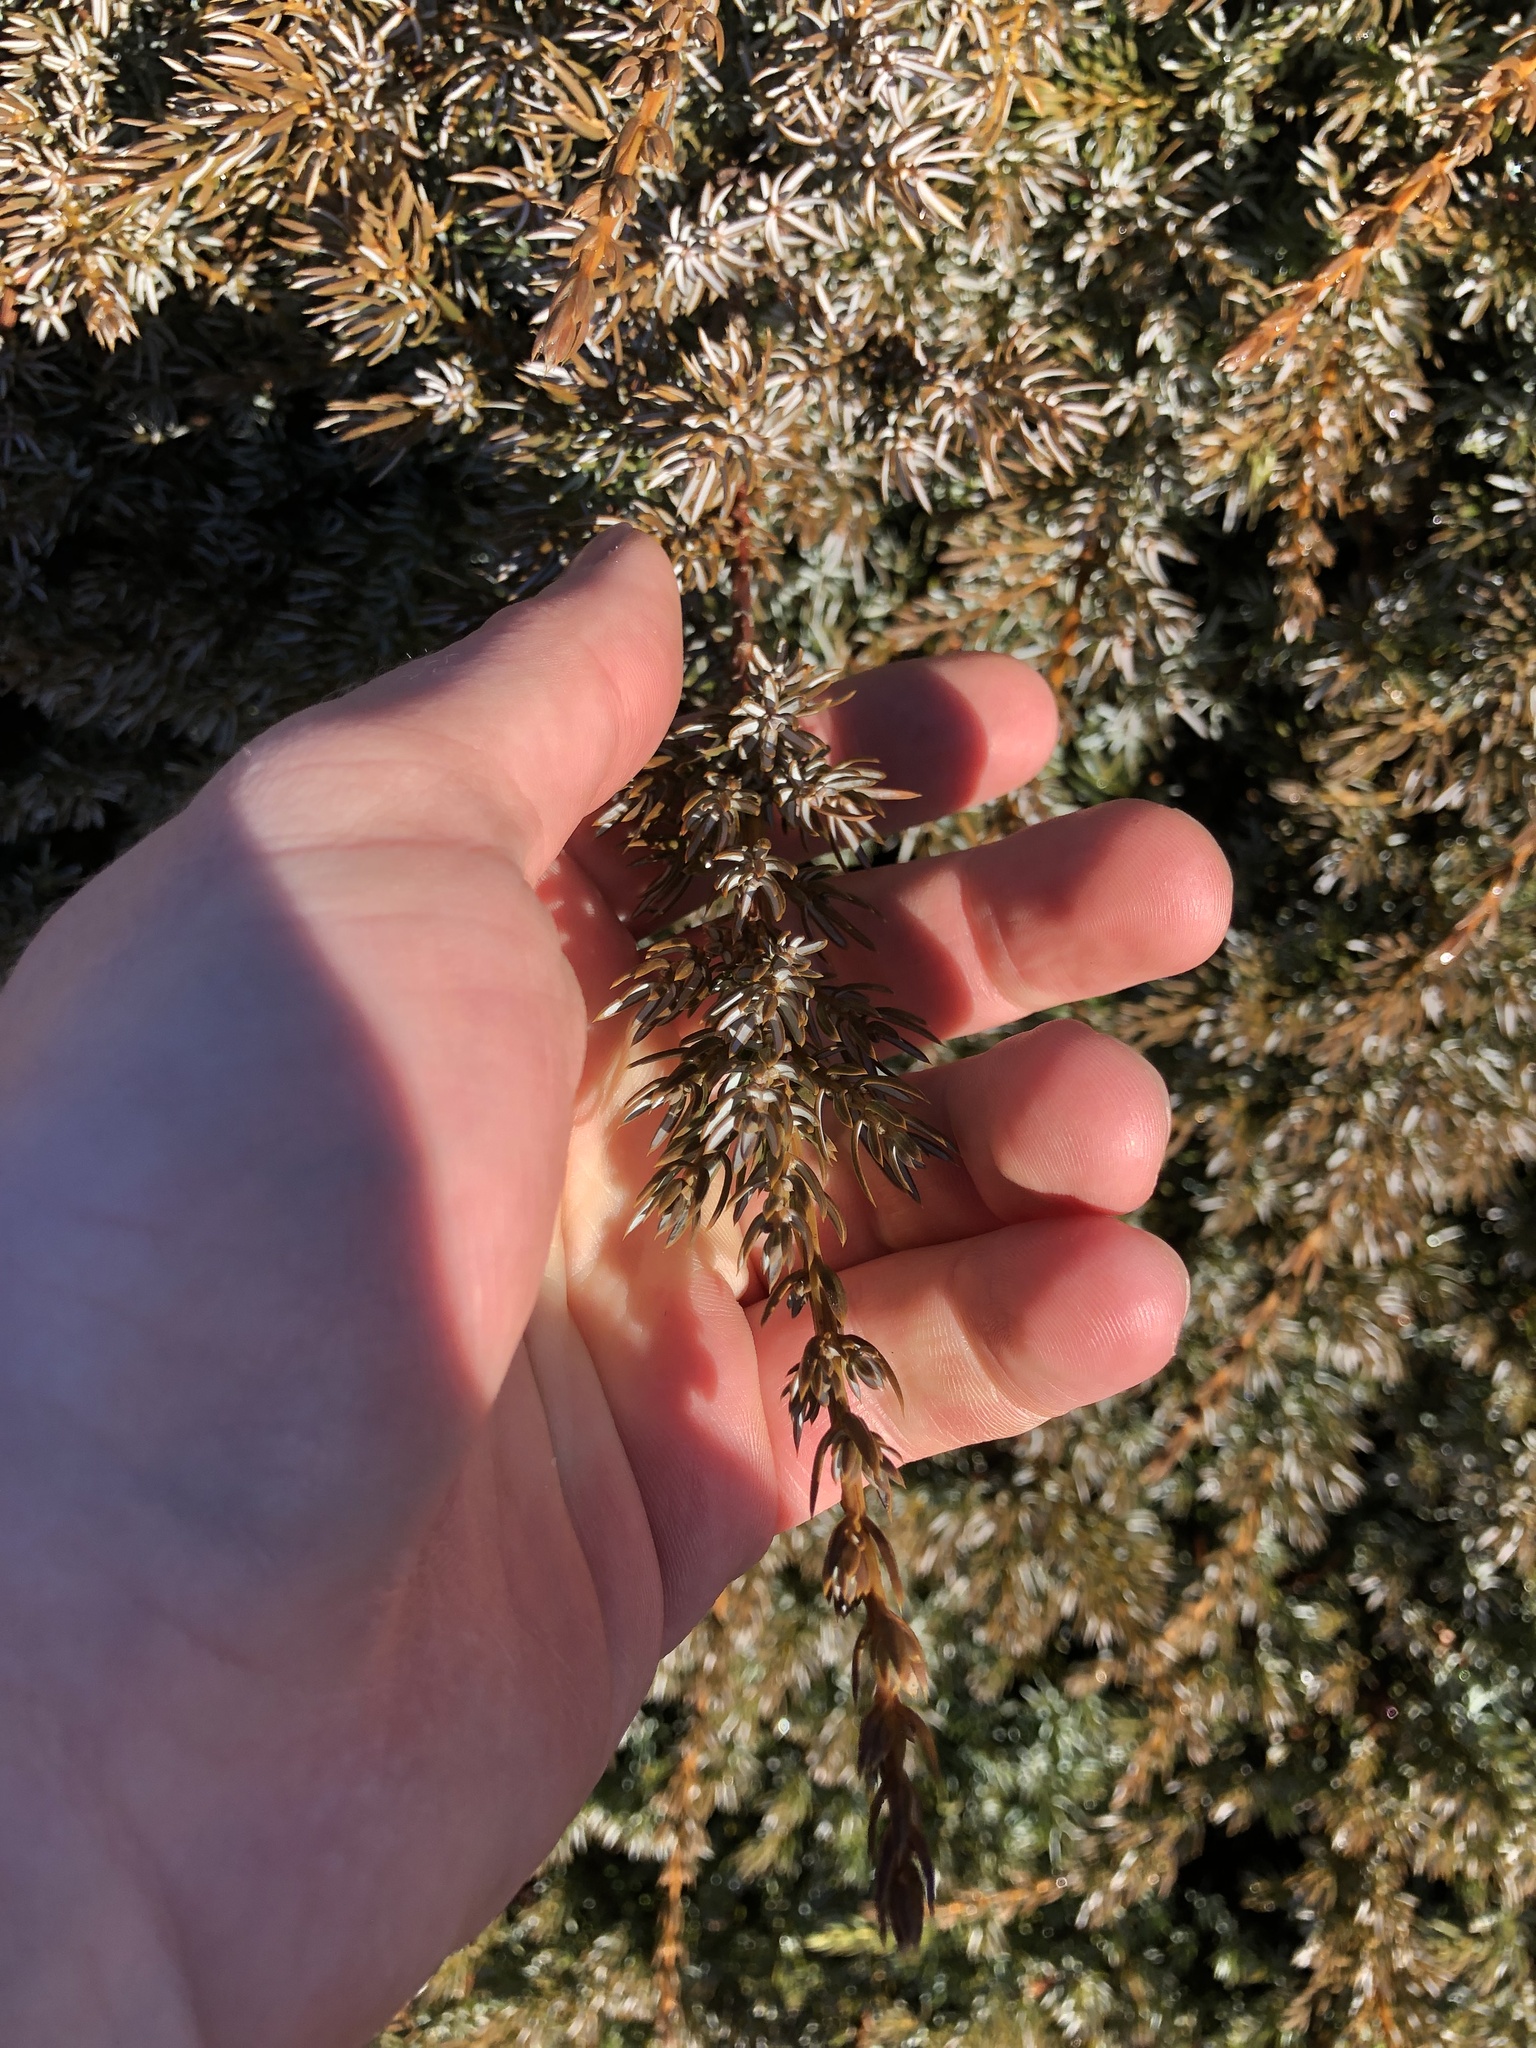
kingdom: Plantae
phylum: Tracheophyta
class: Pinopsida
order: Pinales
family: Cupressaceae
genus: Juniperus
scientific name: Juniperus communis
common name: Common juniper
